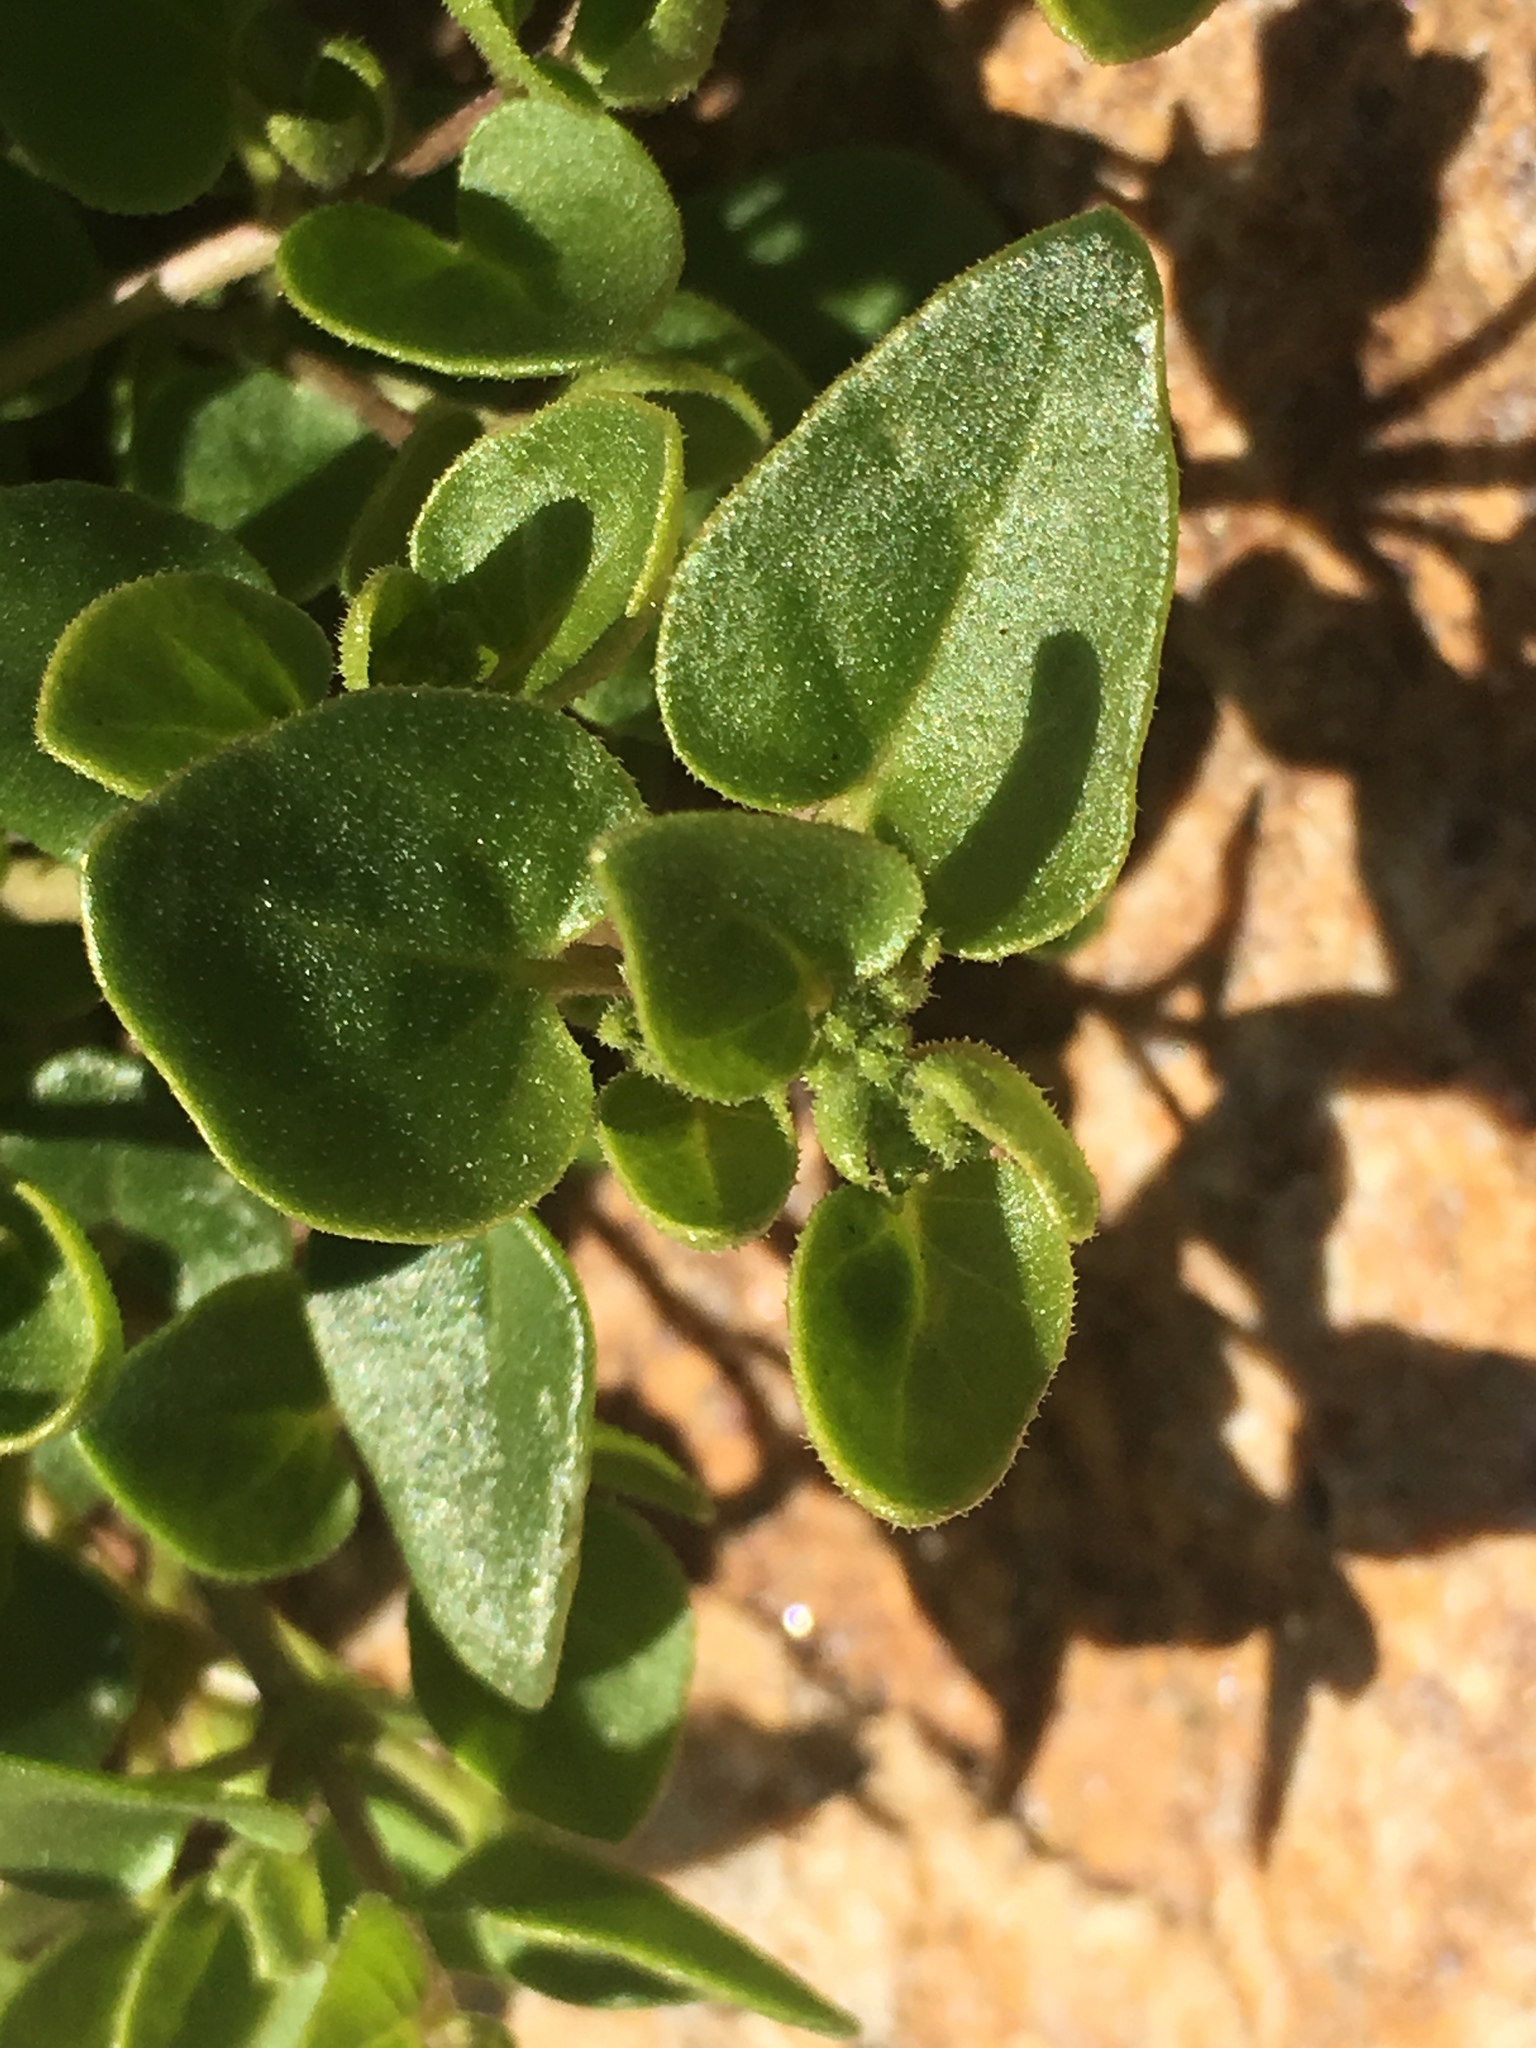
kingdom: Plantae
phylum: Tracheophyta
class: Magnoliopsida
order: Caryophyllales
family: Nyctaginaceae
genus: Mirabilis
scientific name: Mirabilis laevis
